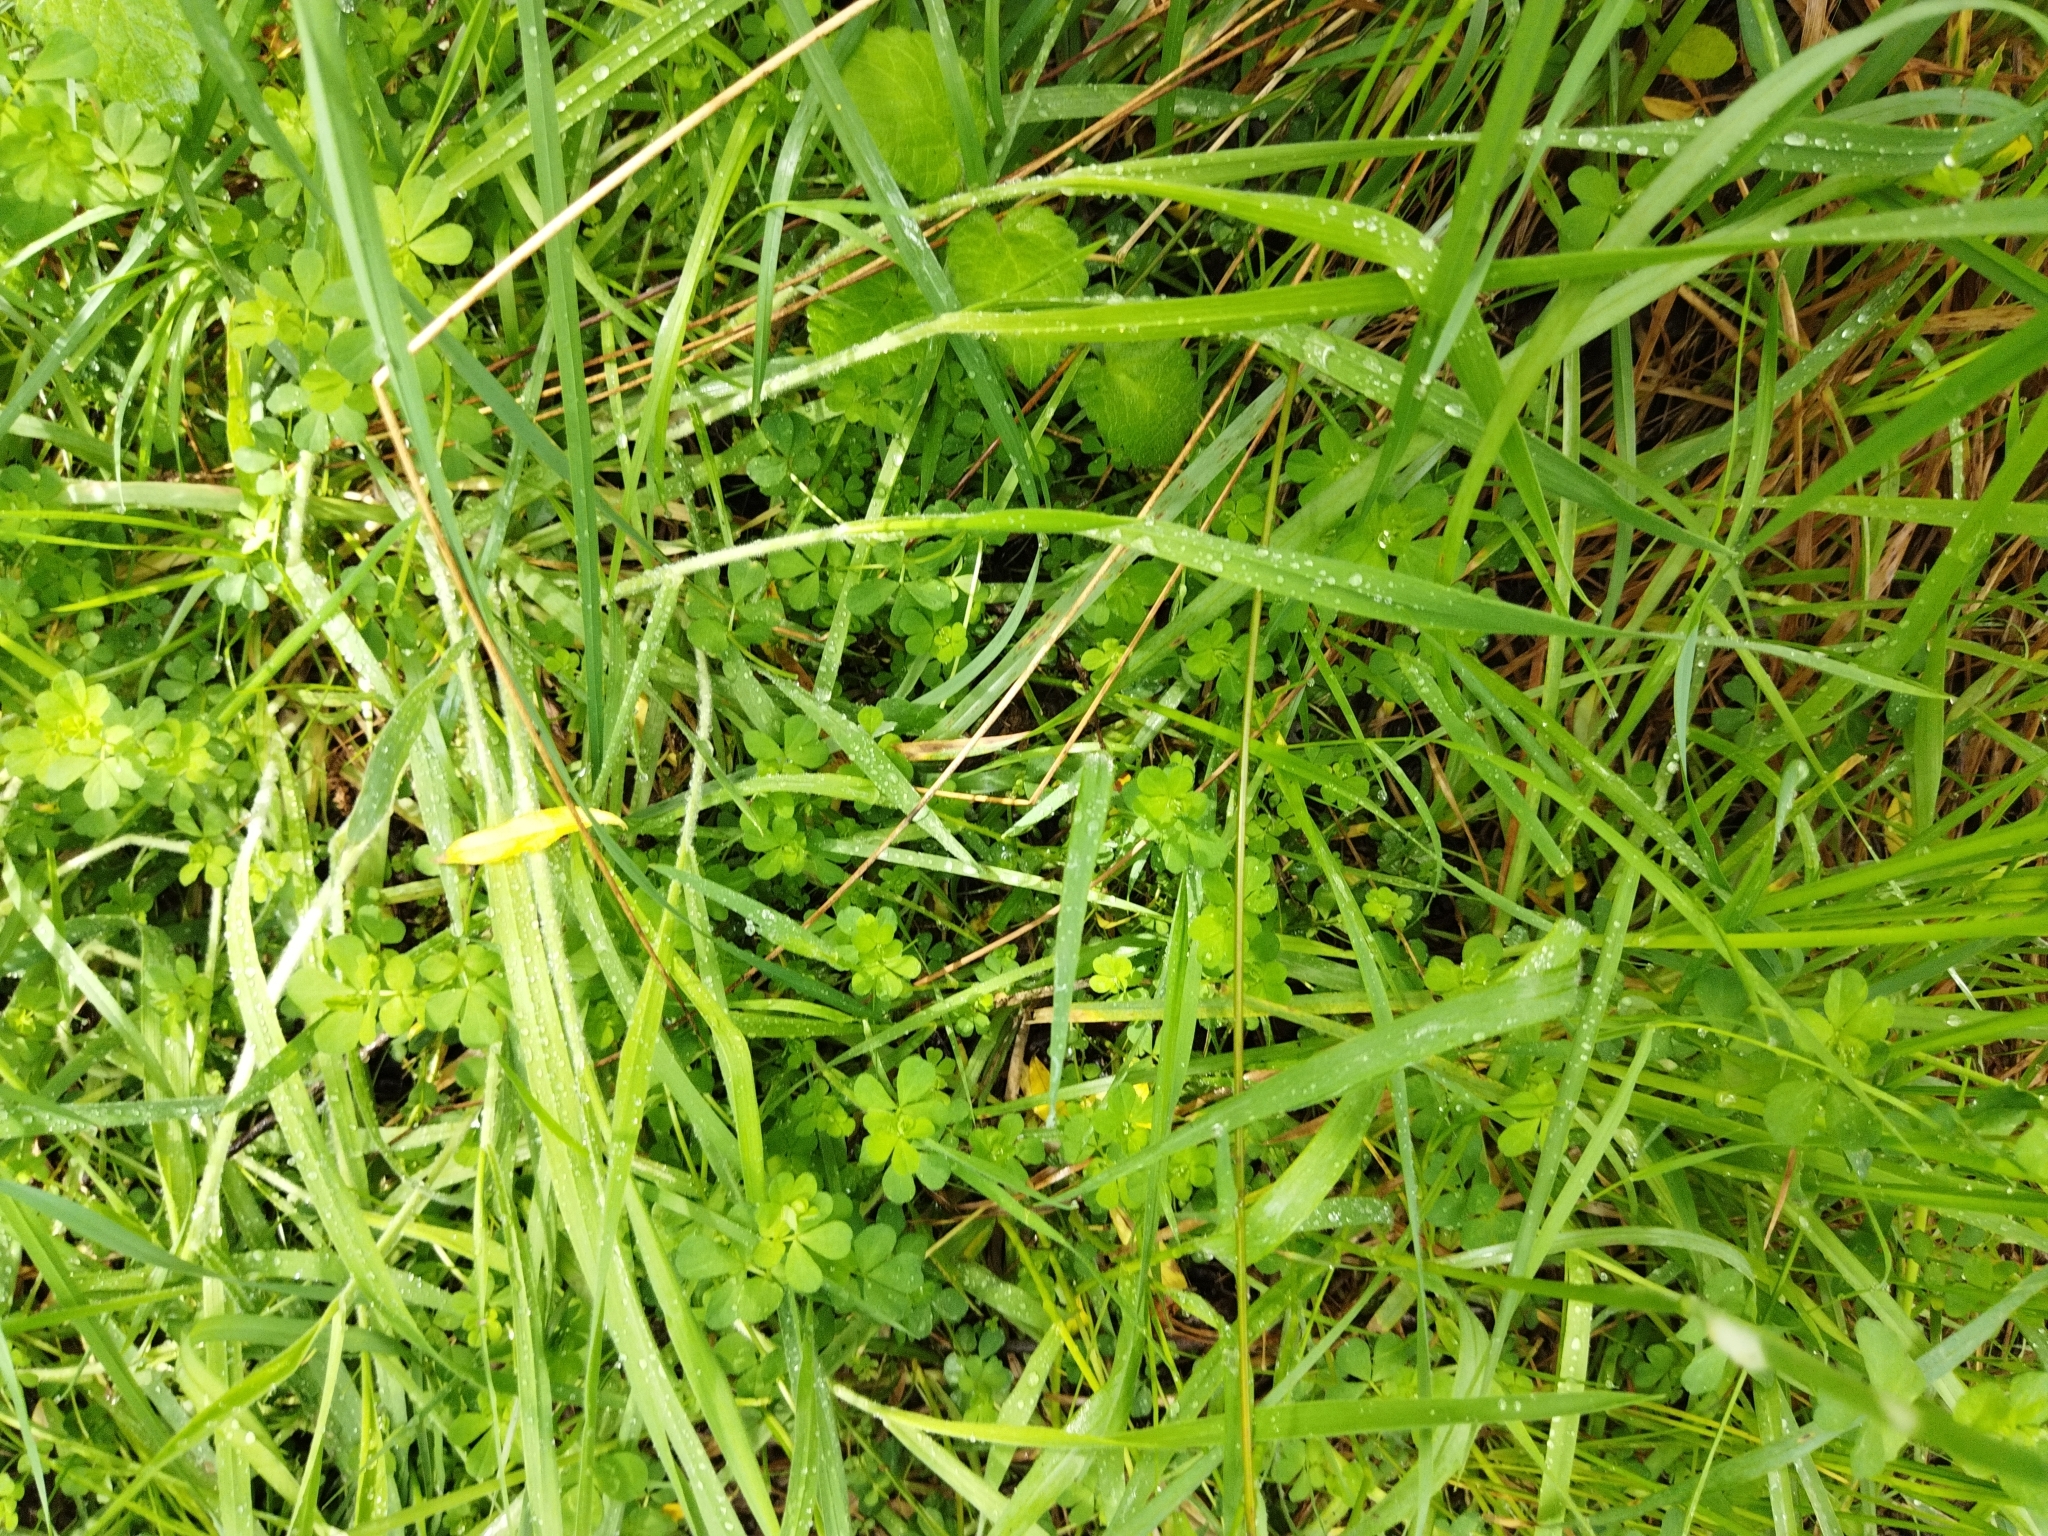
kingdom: Plantae
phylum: Tracheophyta
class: Magnoliopsida
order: Fabales
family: Fabaceae
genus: Lotus
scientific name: Lotus pedunculatus
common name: Greater birdsfoot-trefoil
